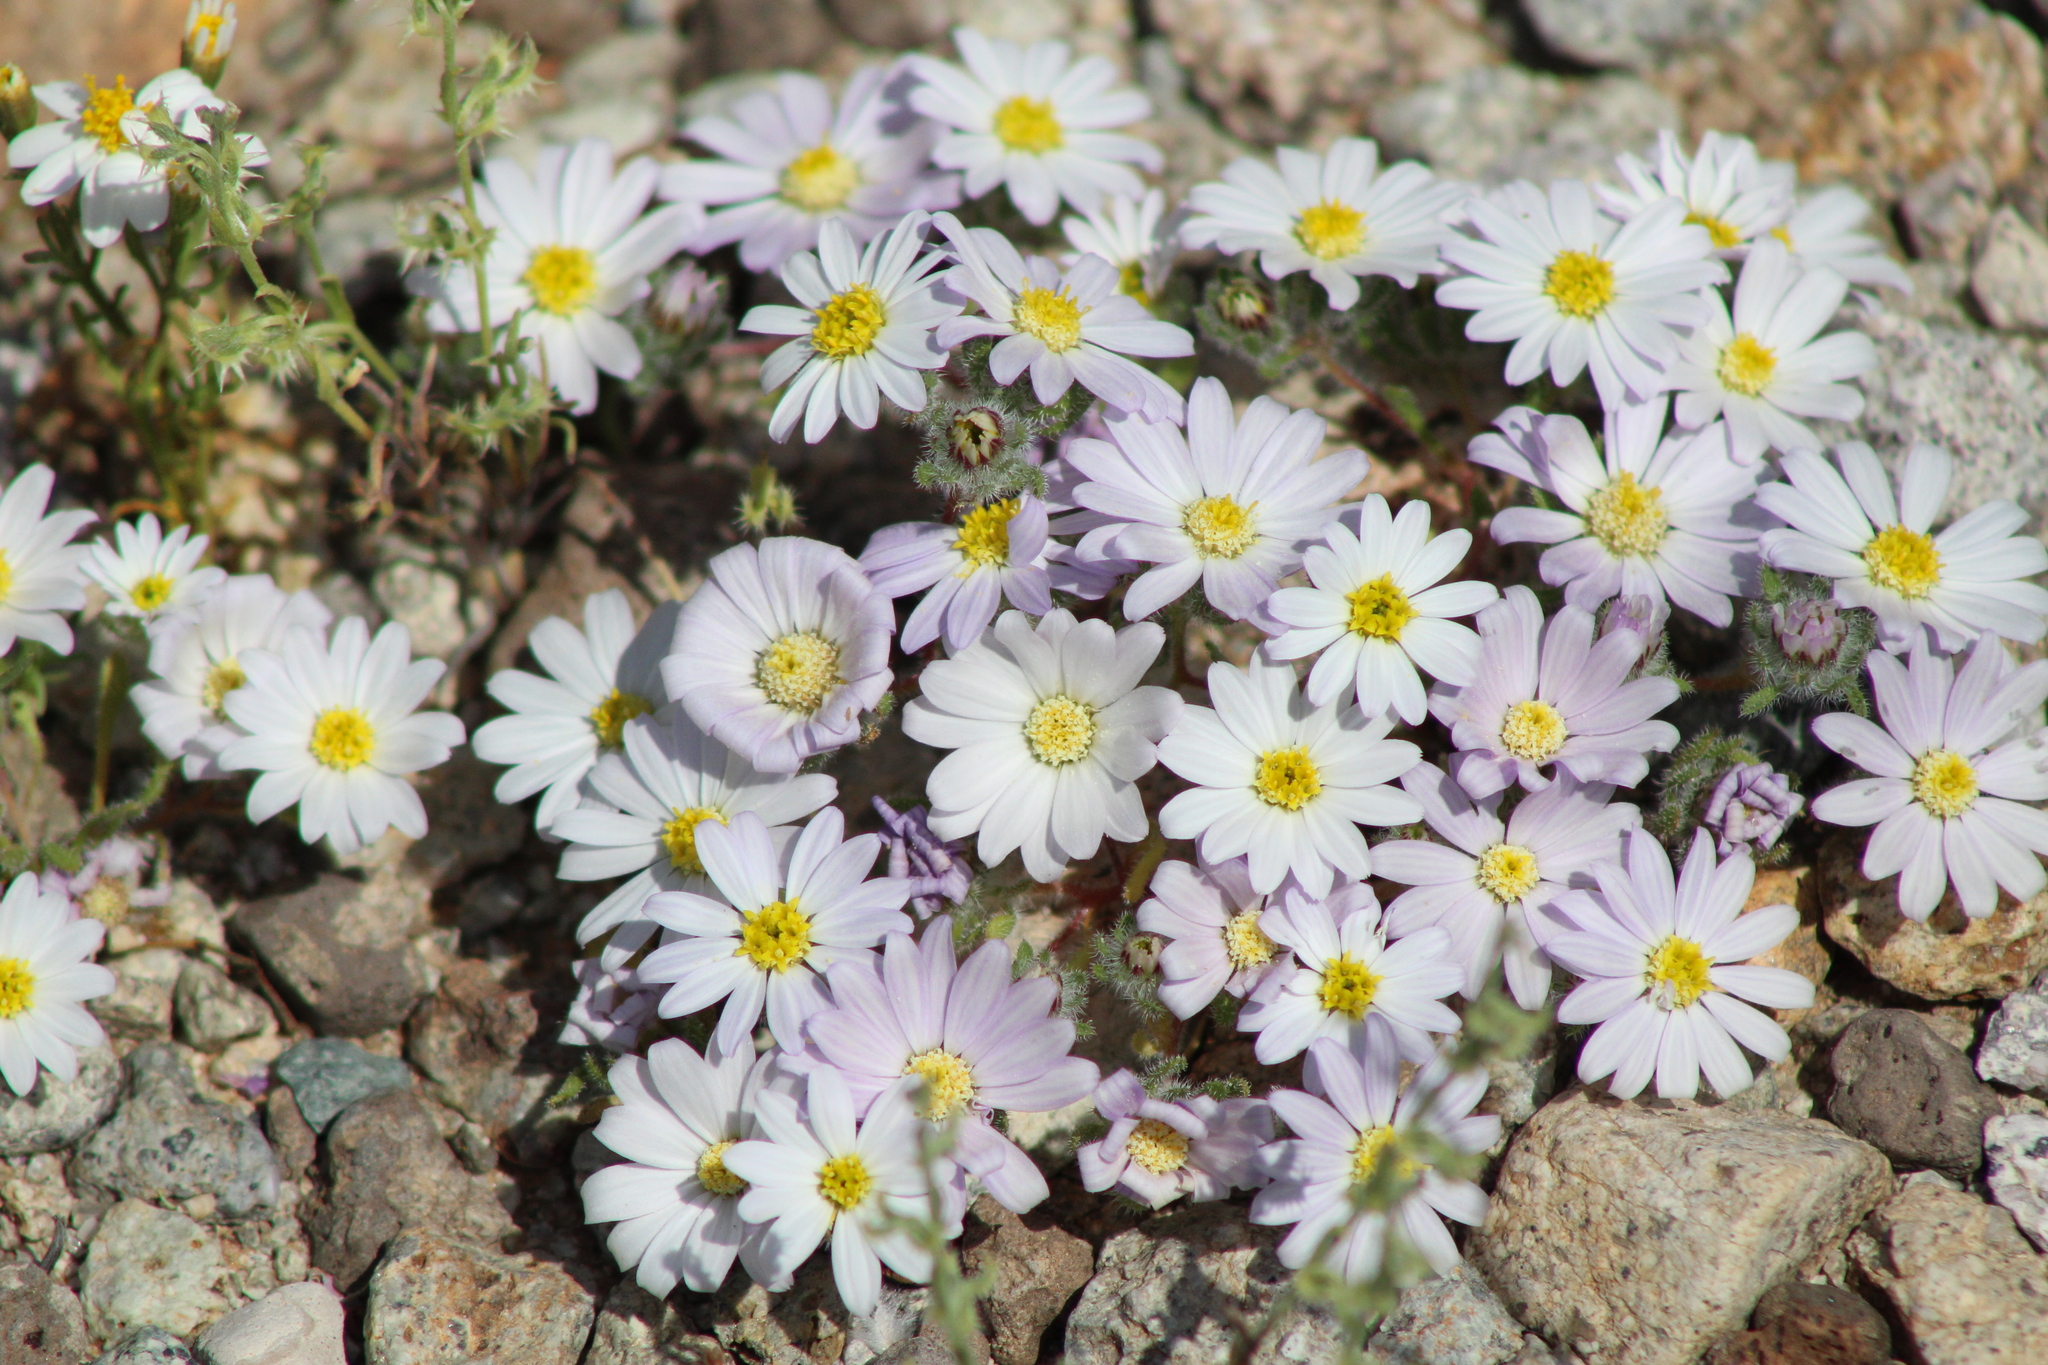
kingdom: Plantae
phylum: Tracheophyta
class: Magnoliopsida
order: Asterales
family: Asteraceae
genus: Monoptilon
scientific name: Monoptilon bellioides
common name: Bristly desertstar
